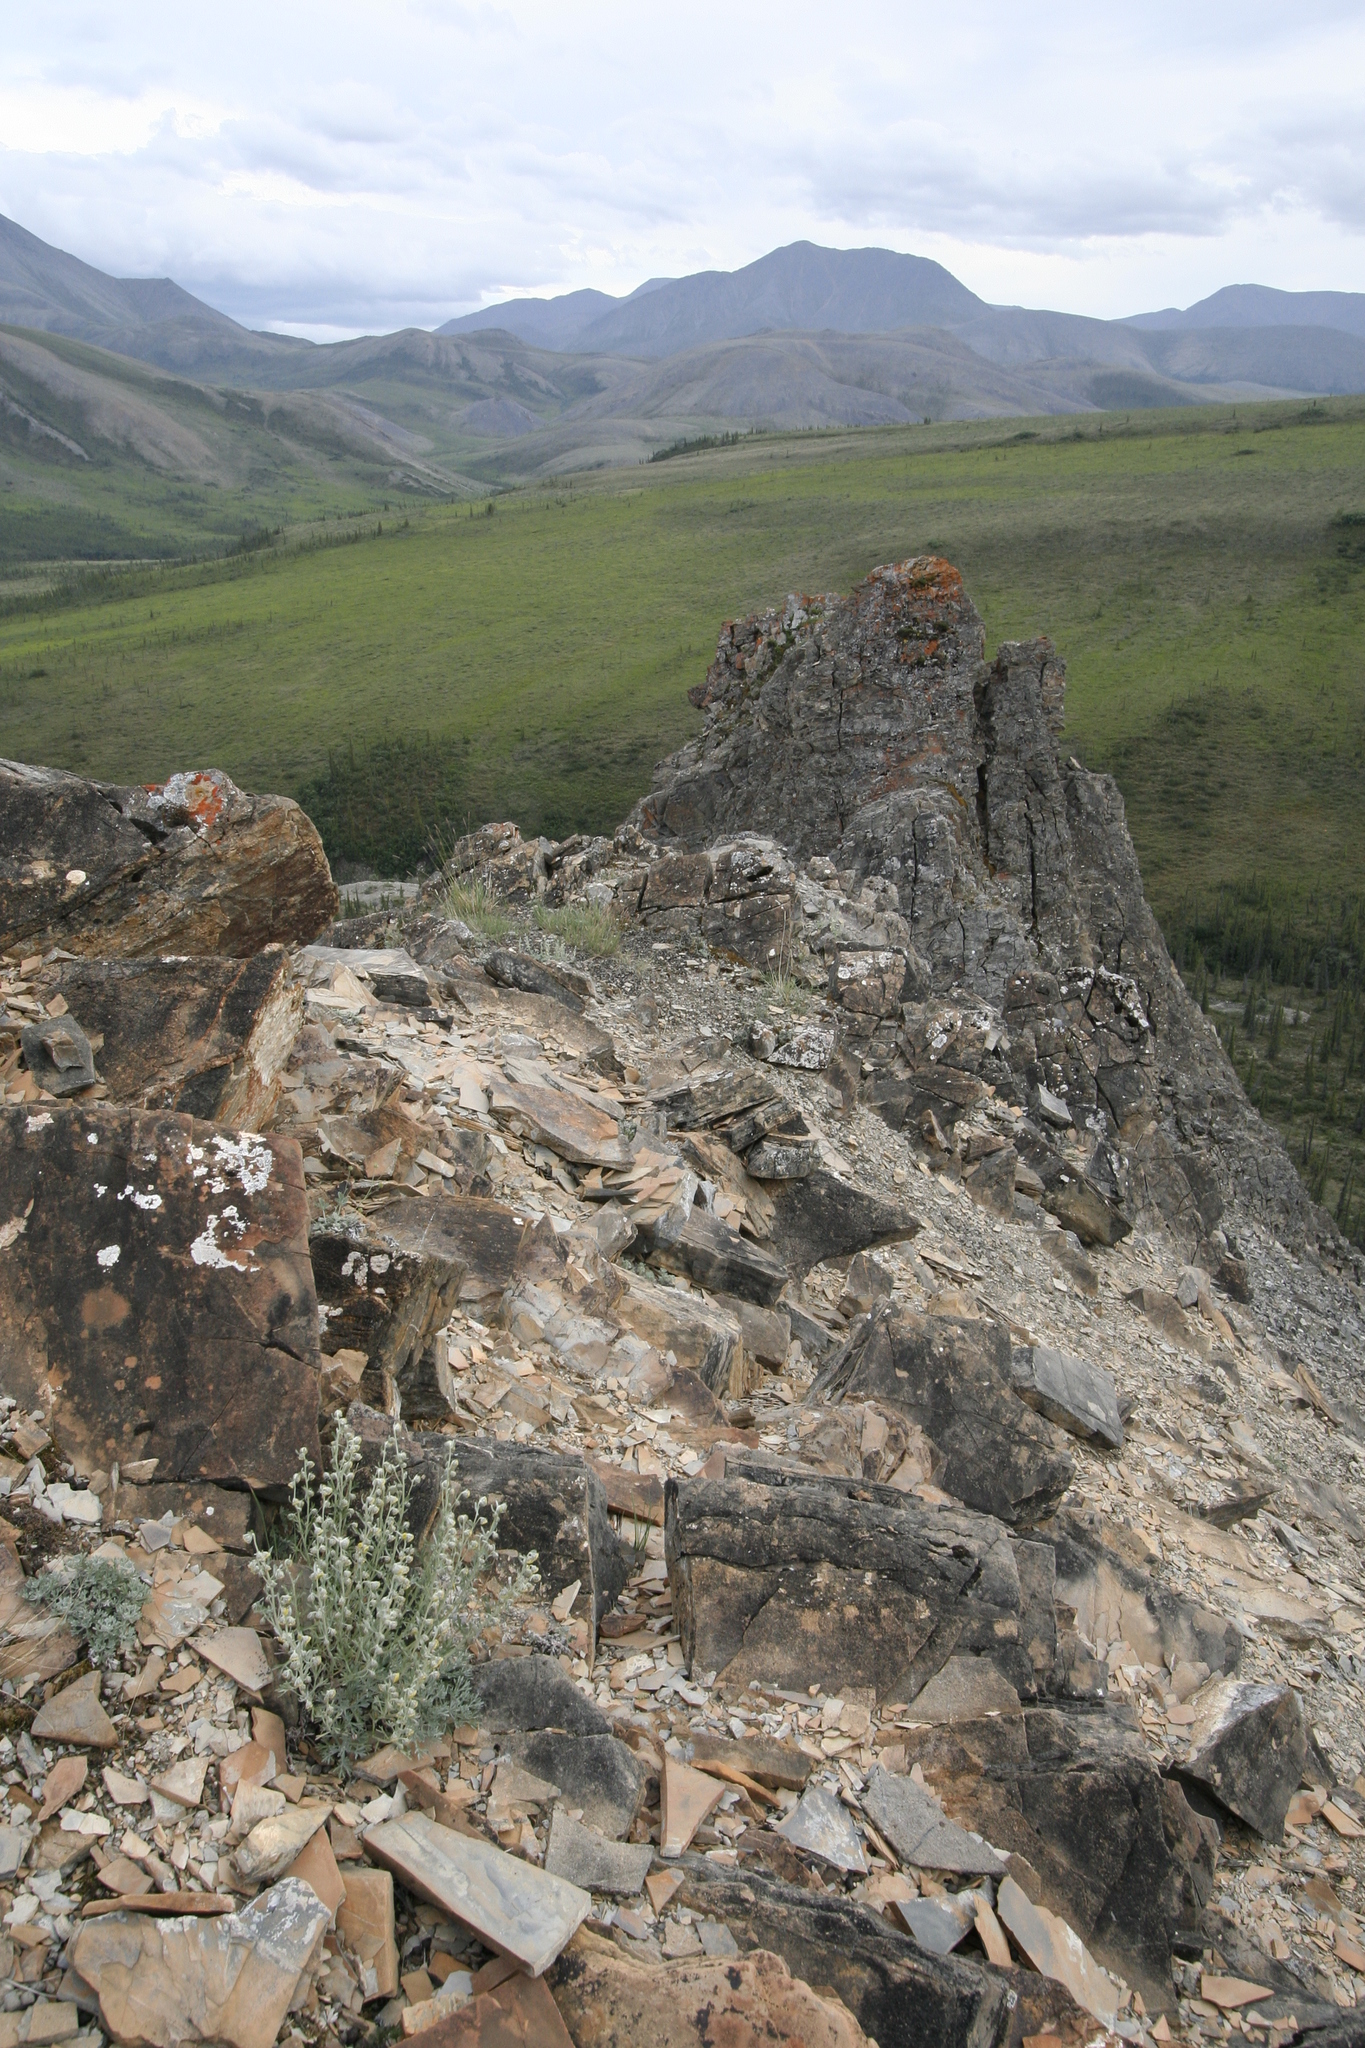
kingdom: Plantae
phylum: Tracheophyta
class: Magnoliopsida
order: Asterales
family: Asteraceae
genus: Artemisia
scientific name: Artemisia kruhsiana
